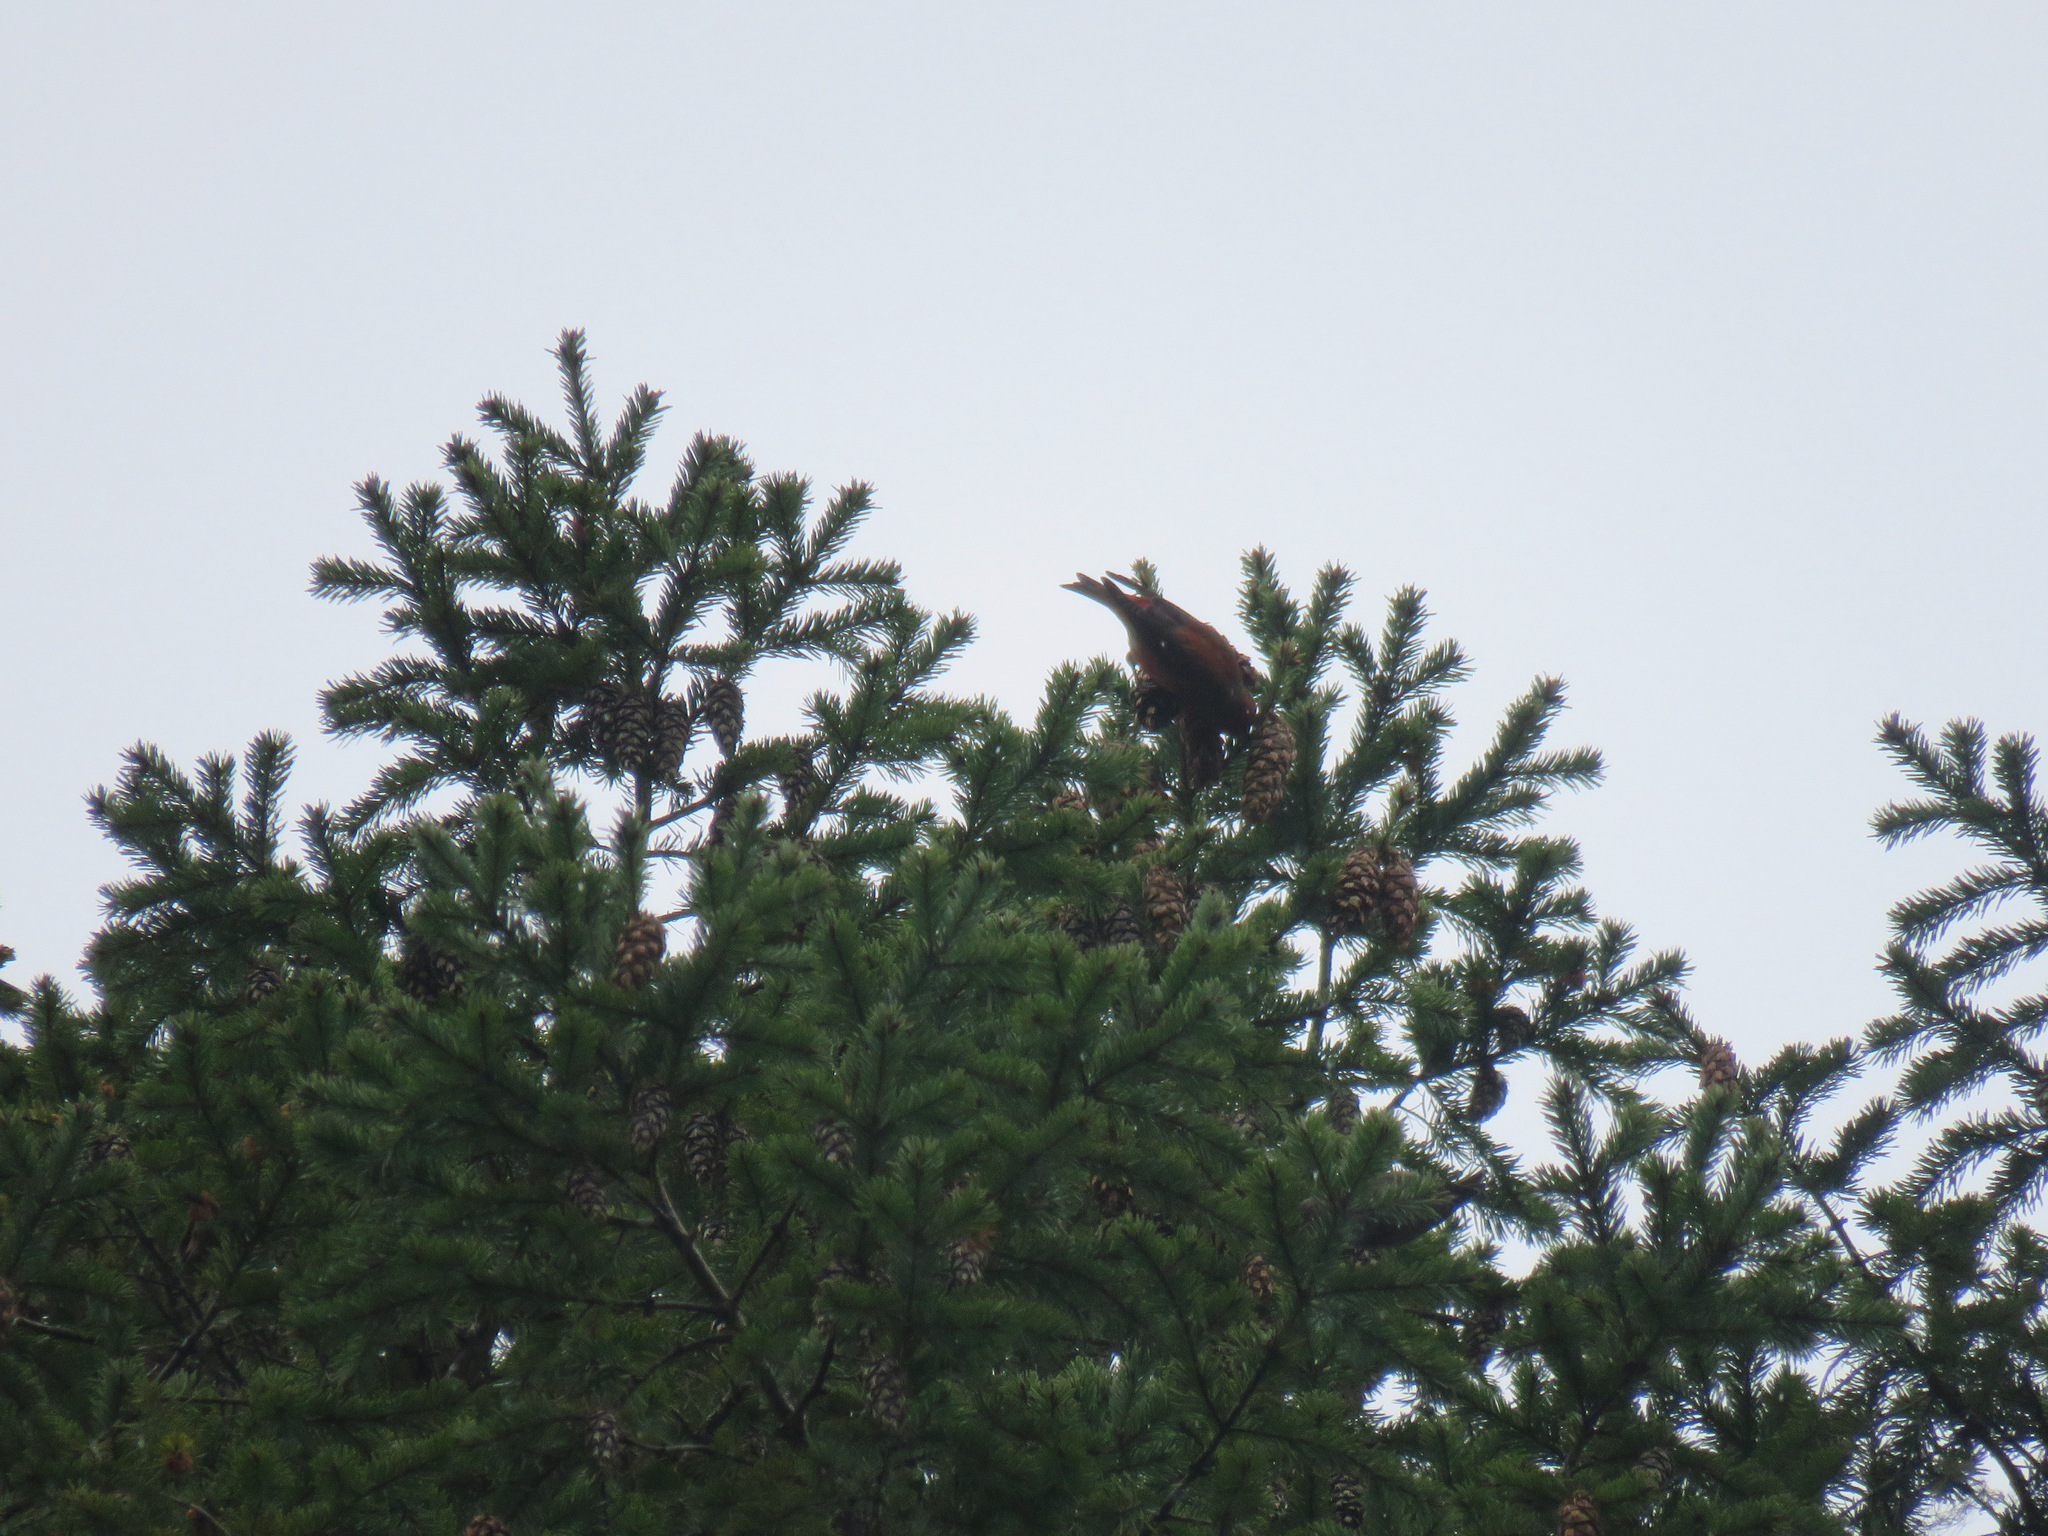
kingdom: Animalia
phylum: Chordata
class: Aves
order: Passeriformes
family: Fringillidae
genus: Loxia
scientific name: Loxia curvirostra
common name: Red crossbill
